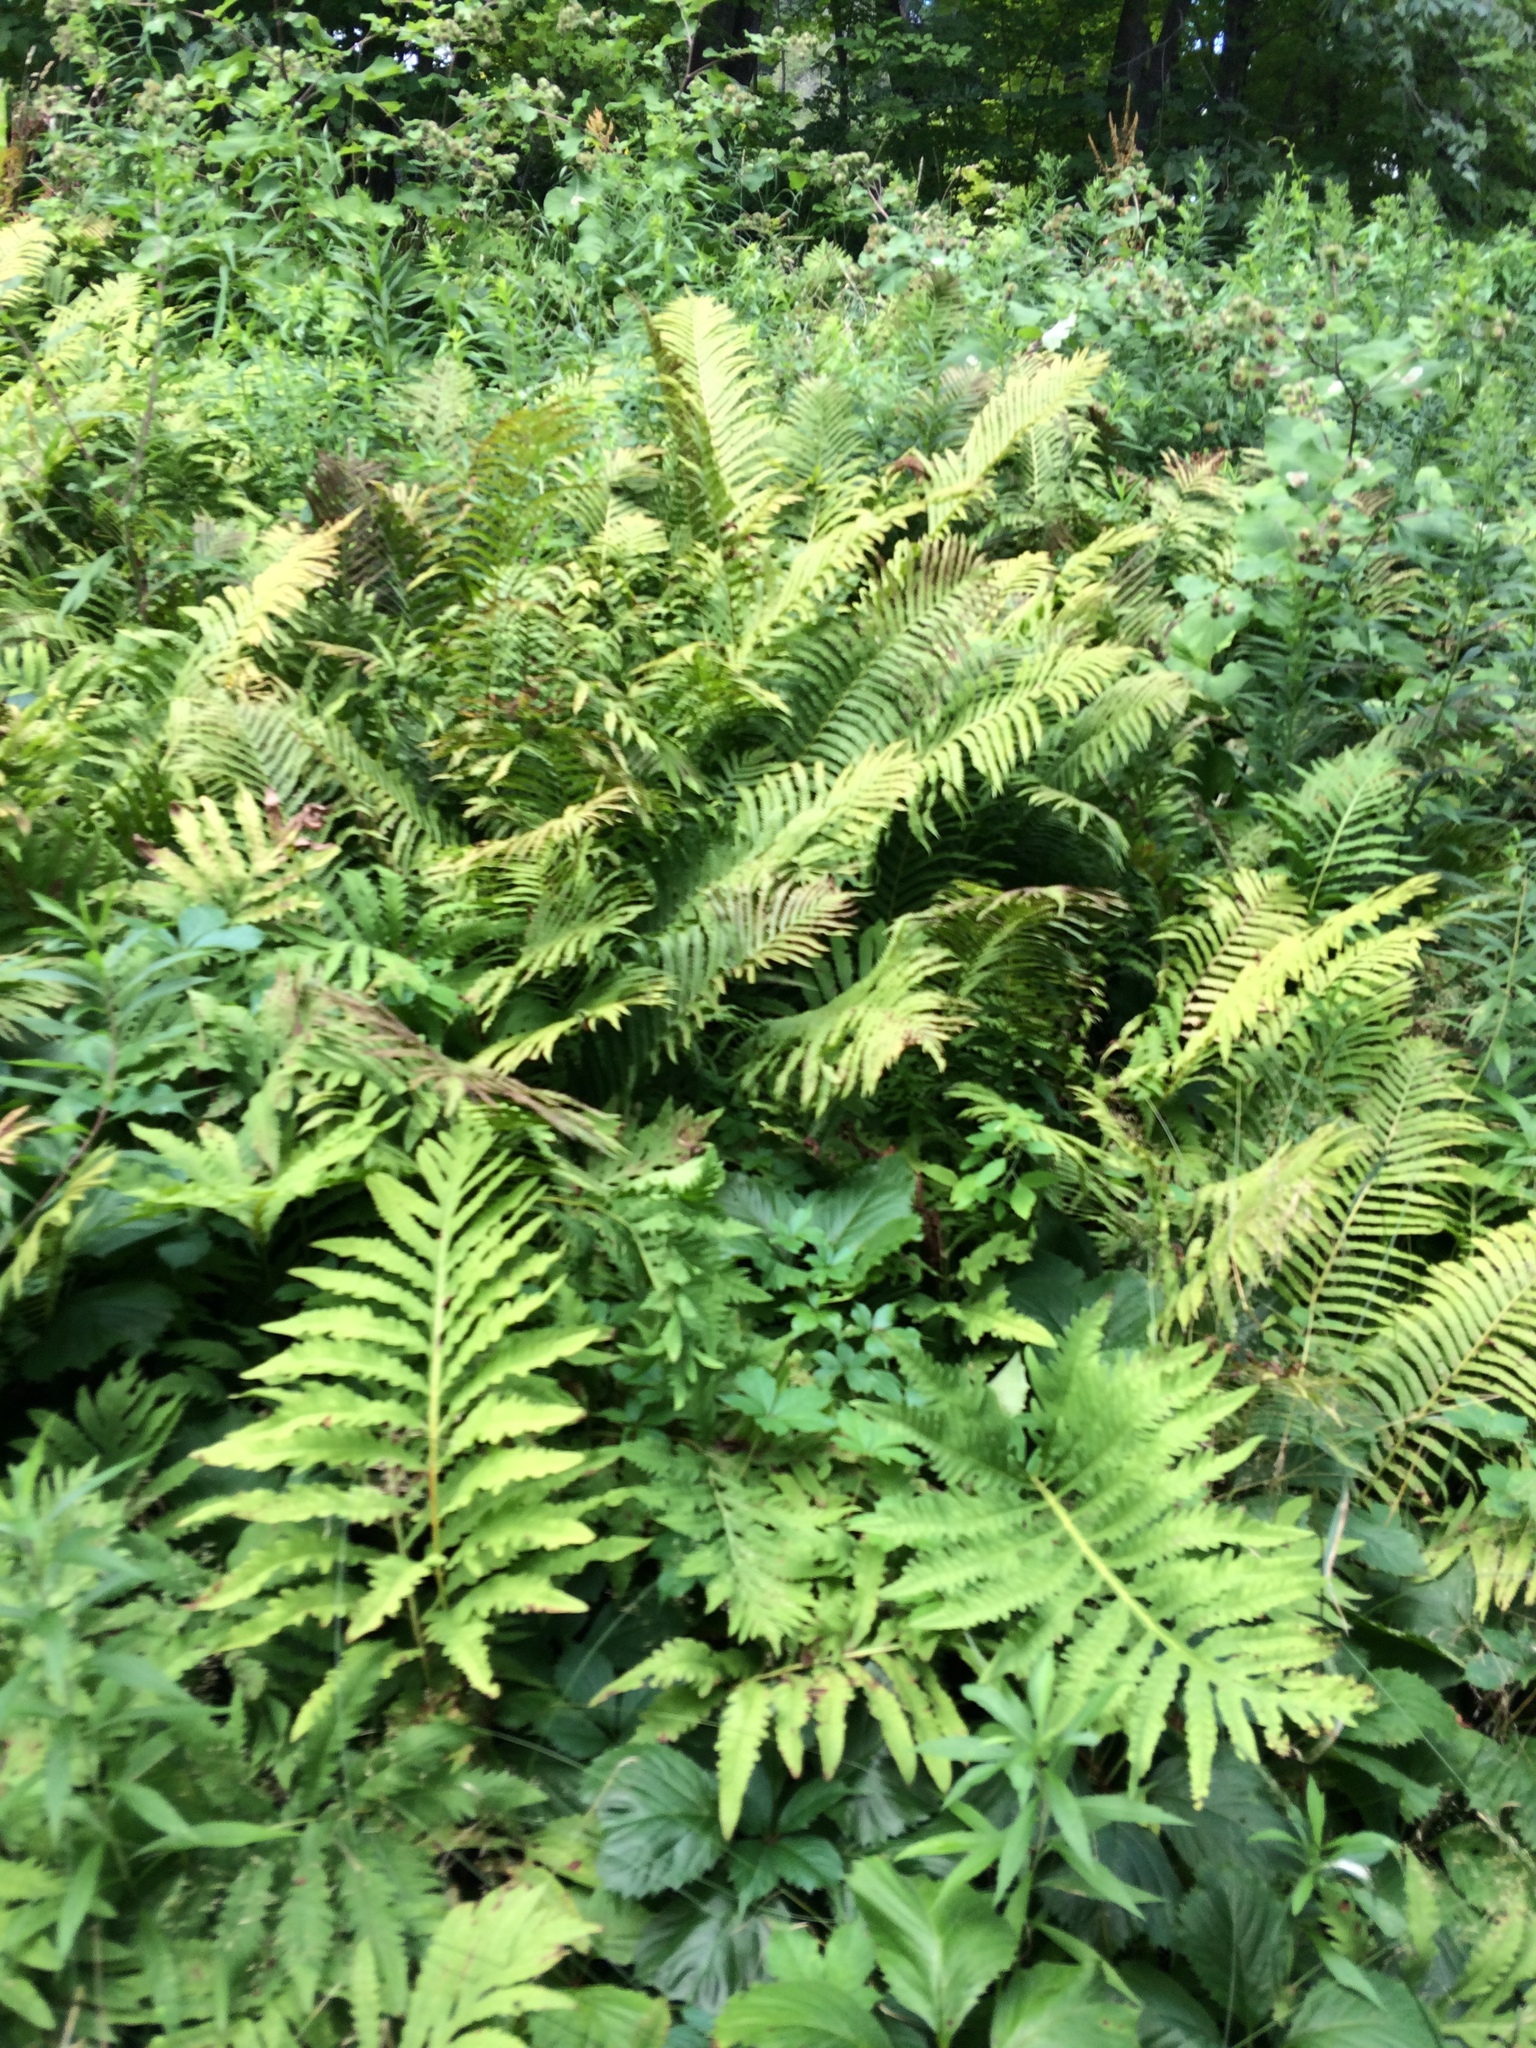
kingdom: Plantae
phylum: Tracheophyta
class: Polypodiopsida
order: Polypodiales
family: Onocleaceae
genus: Matteuccia
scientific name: Matteuccia struthiopteris
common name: Ostrich fern
